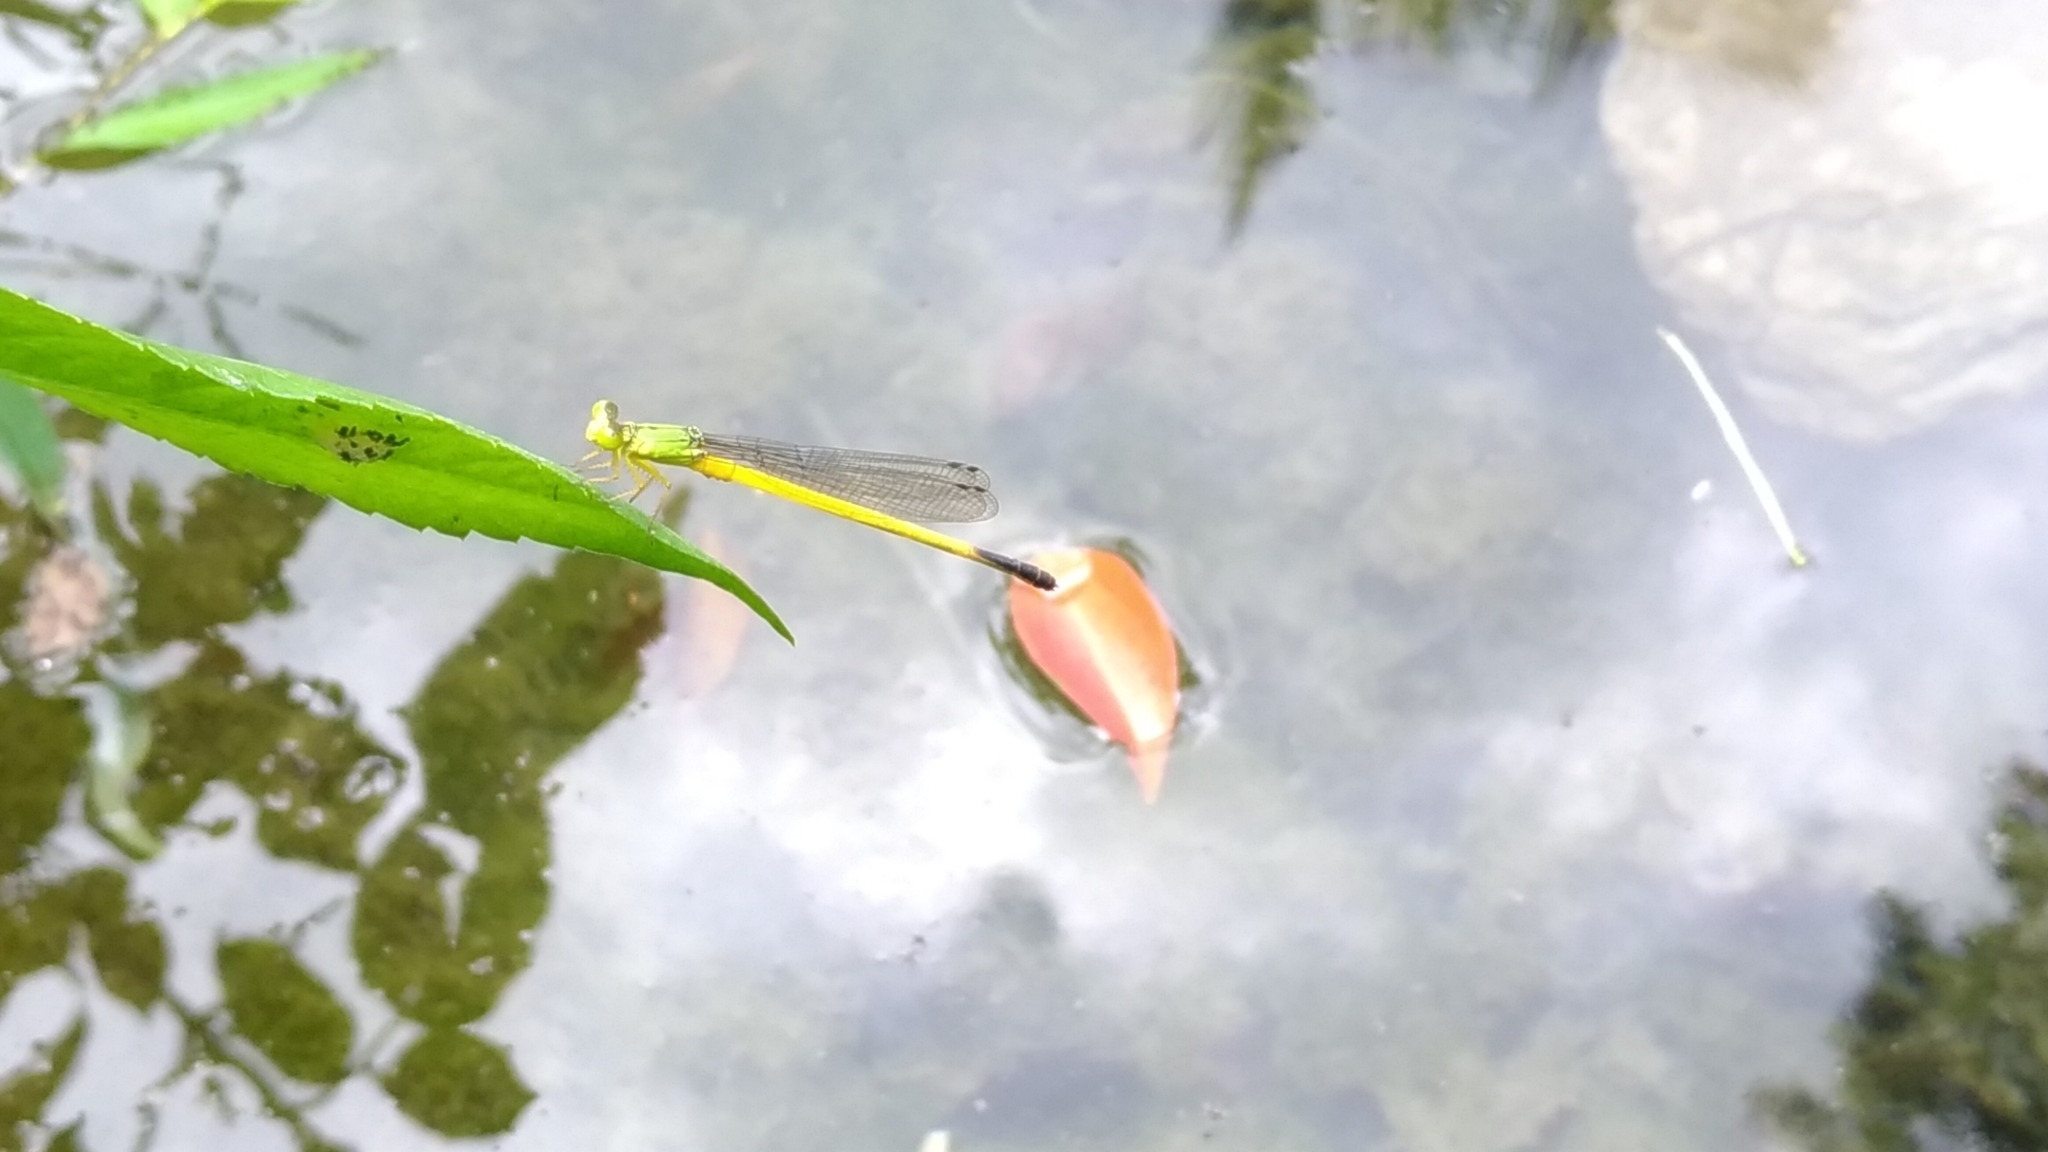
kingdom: Animalia
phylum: Arthropoda
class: Insecta
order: Odonata
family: Coenagrionidae
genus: Ceriagrion
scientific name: Ceriagrion fallax
